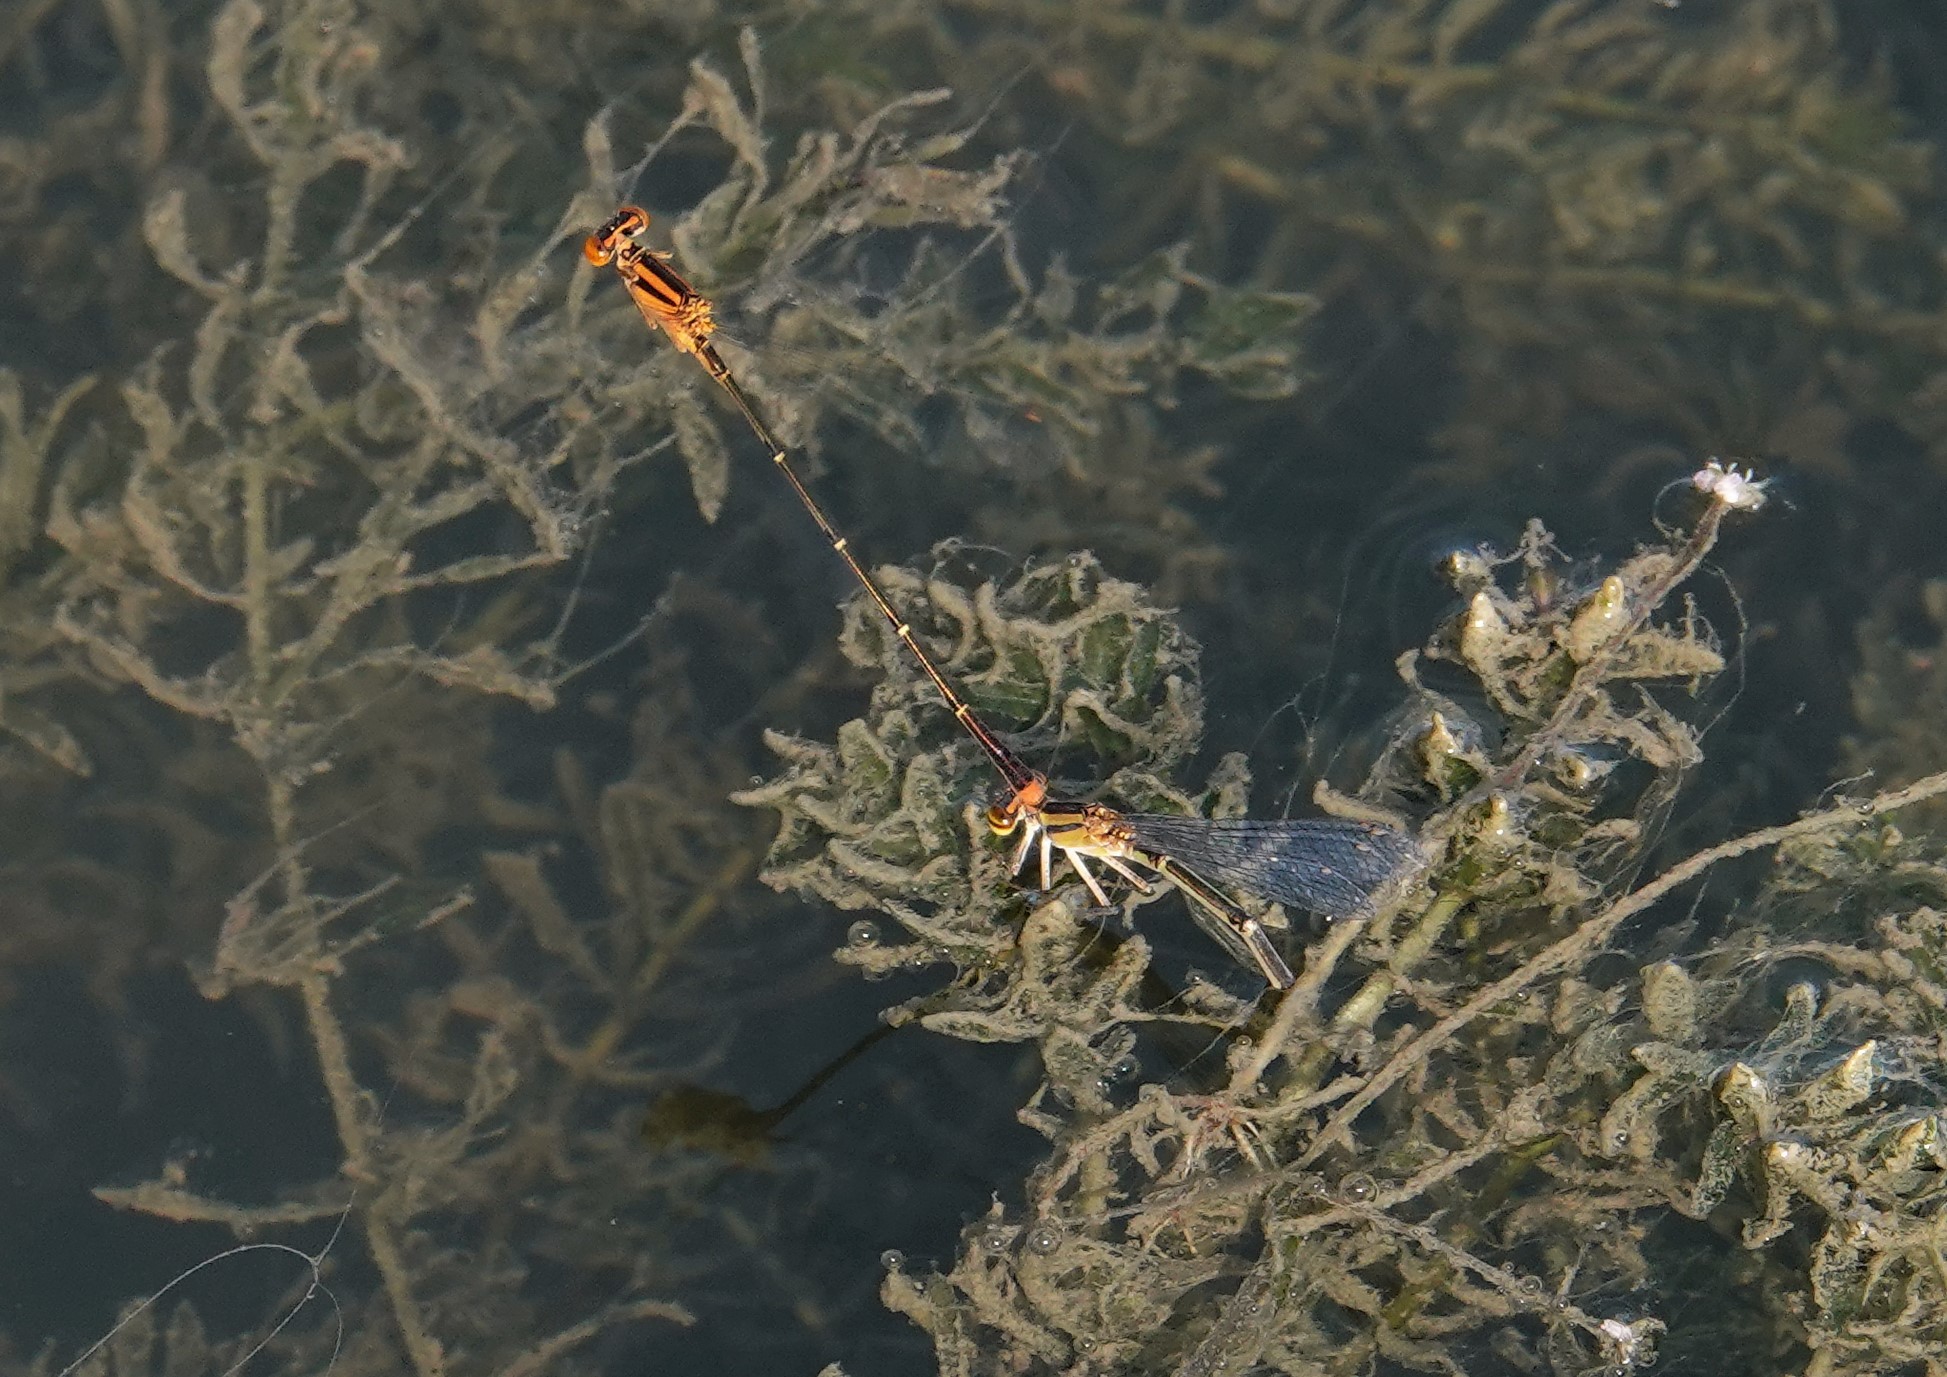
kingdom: Animalia
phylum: Arthropoda
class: Insecta
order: Odonata
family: Coenagrionidae
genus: Enallagma
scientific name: Enallagma signatum
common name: Orange bluet
